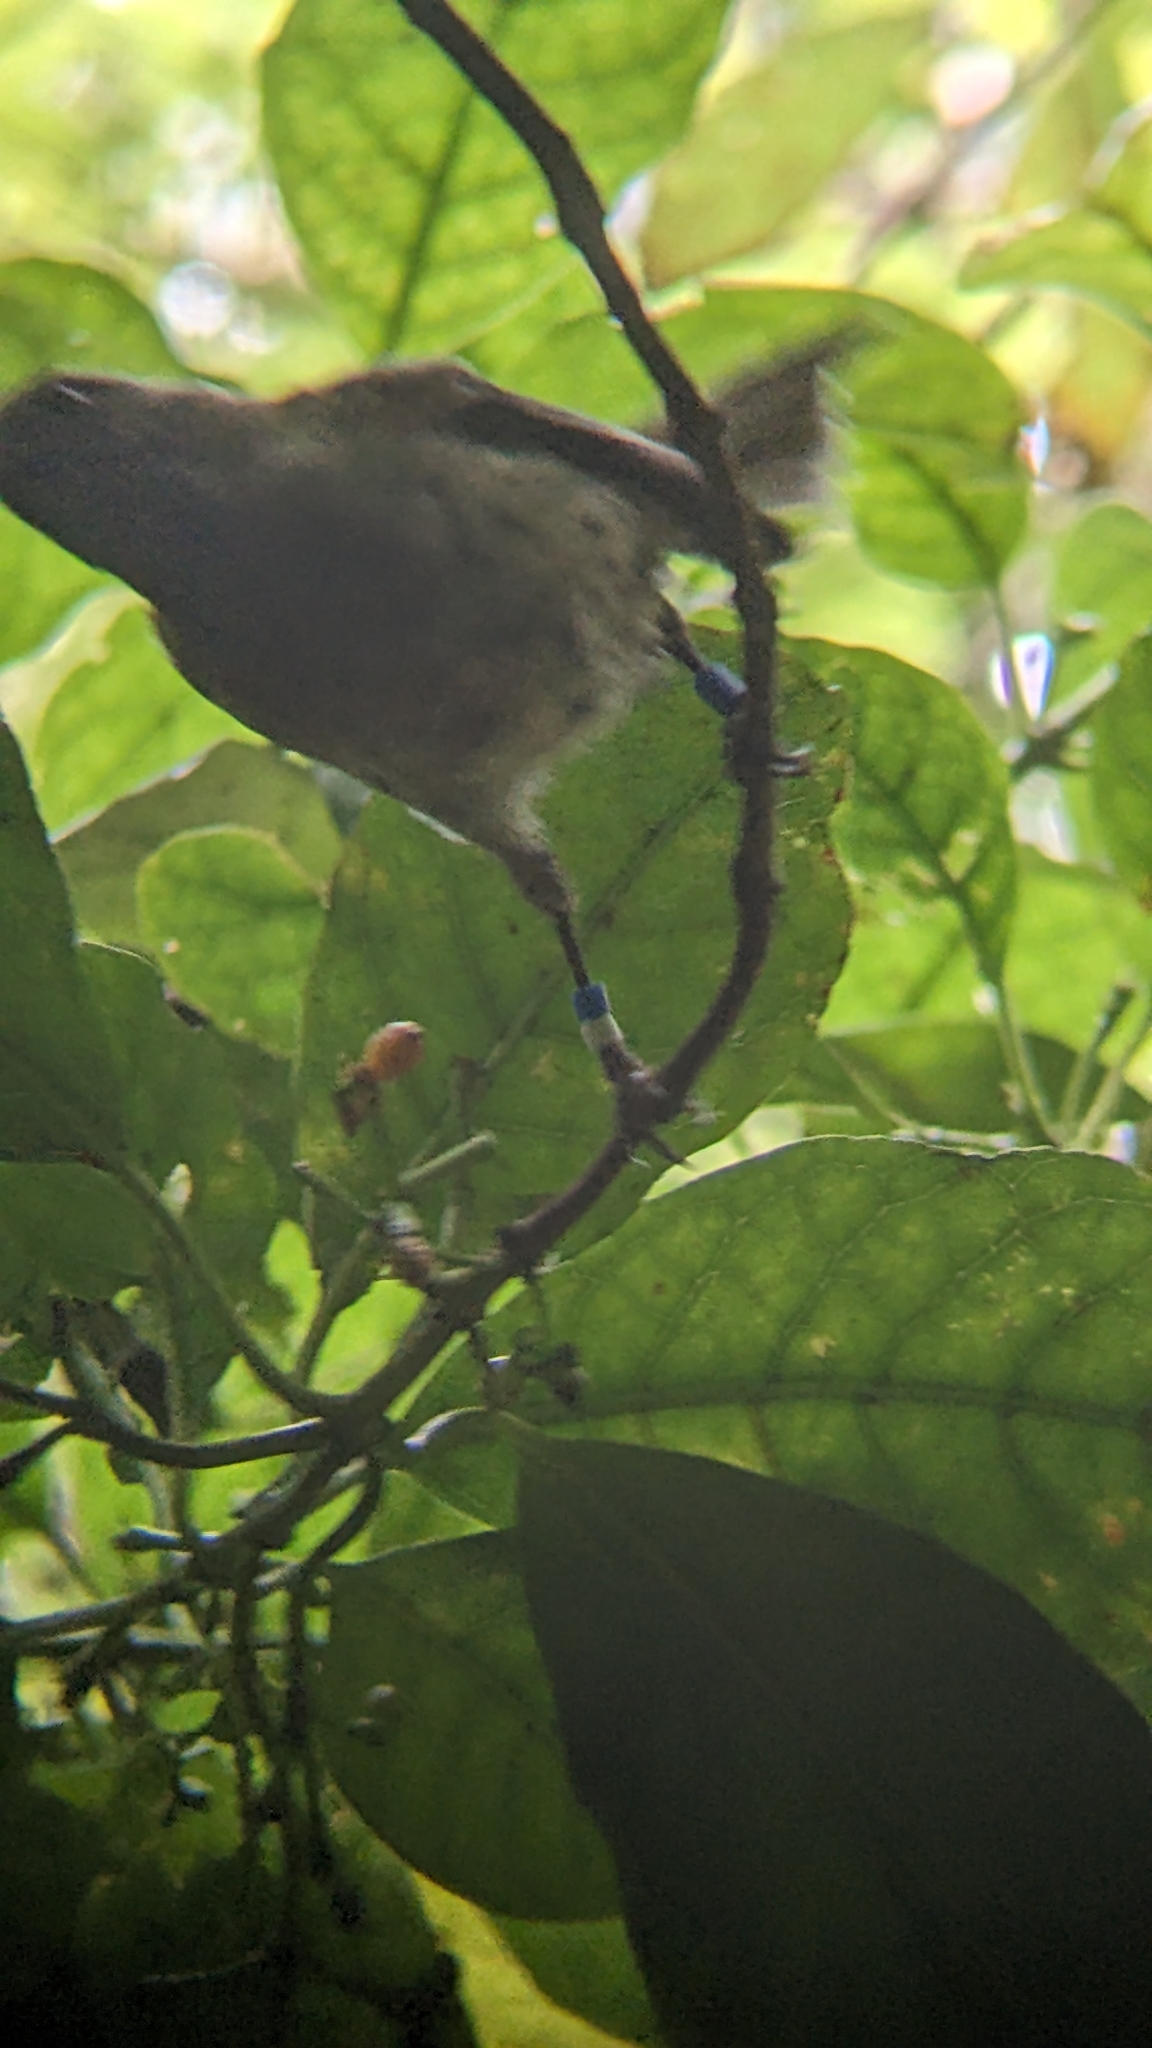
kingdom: Animalia
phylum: Chordata
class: Aves
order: Passeriformes
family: Notiomystidae
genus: Notiomystis
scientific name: Notiomystis cincta
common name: Stitchbird
